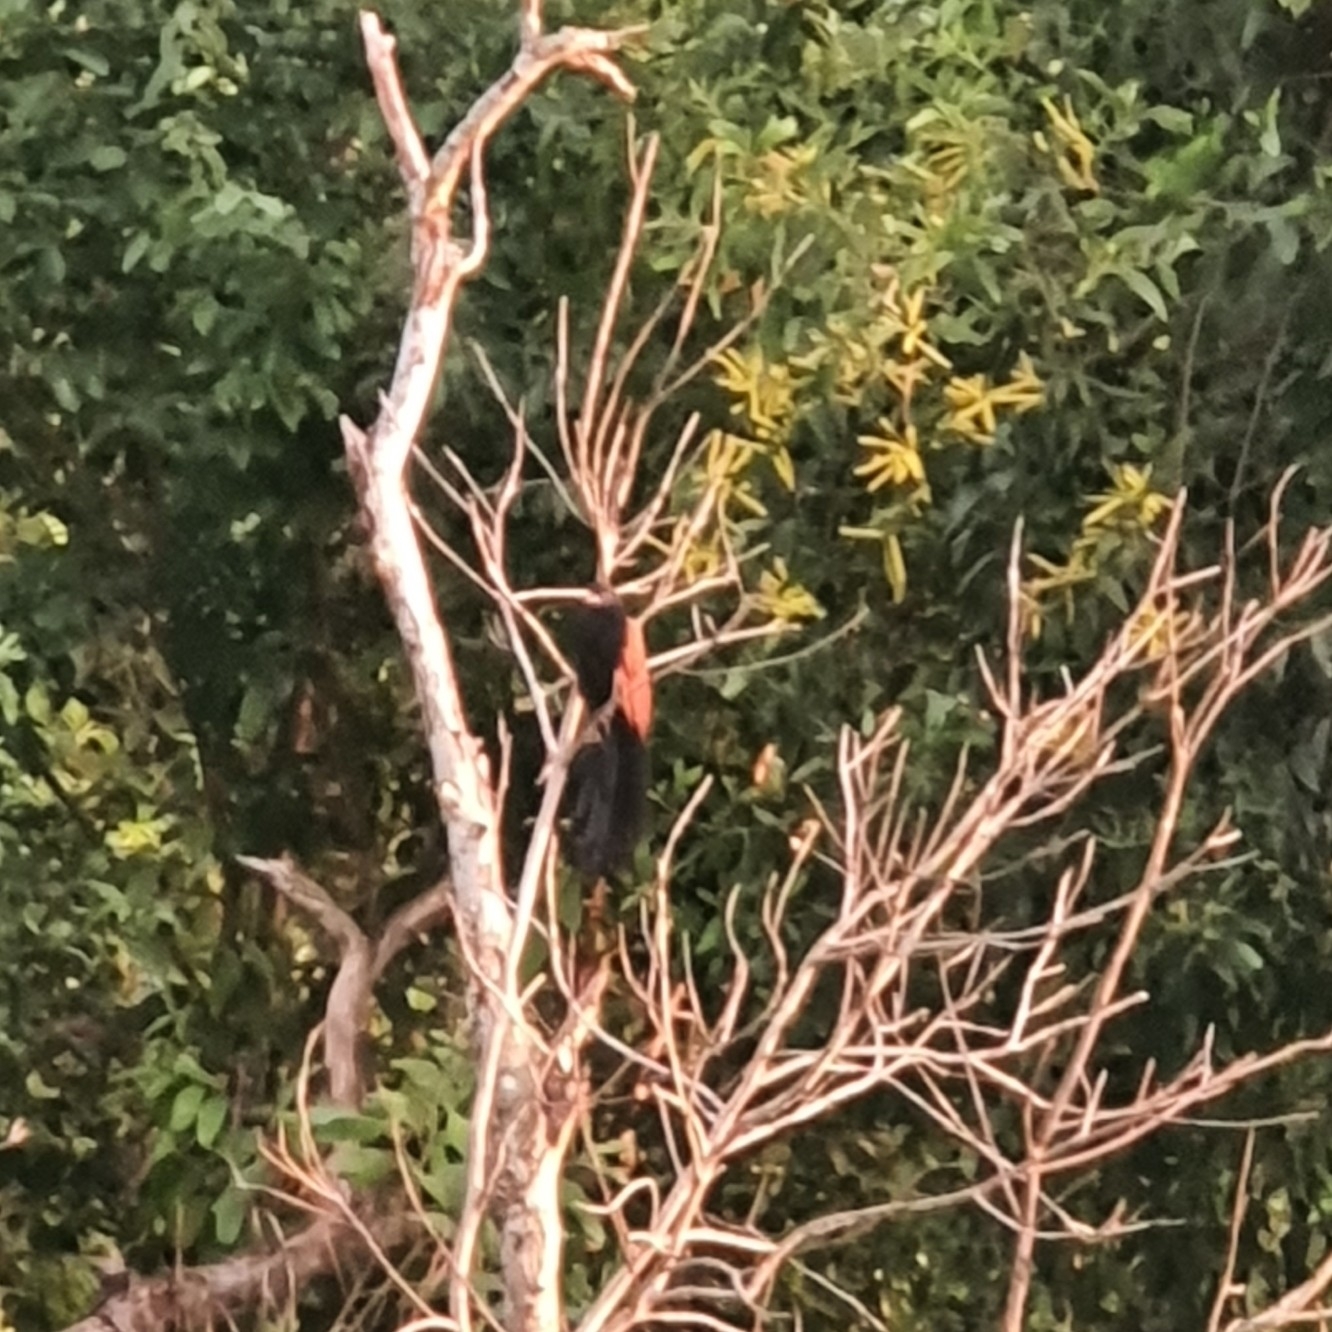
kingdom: Animalia
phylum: Chordata
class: Aves
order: Cuculiformes
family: Cuculidae
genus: Centropus
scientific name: Centropus sinensis
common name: Greater coucal
